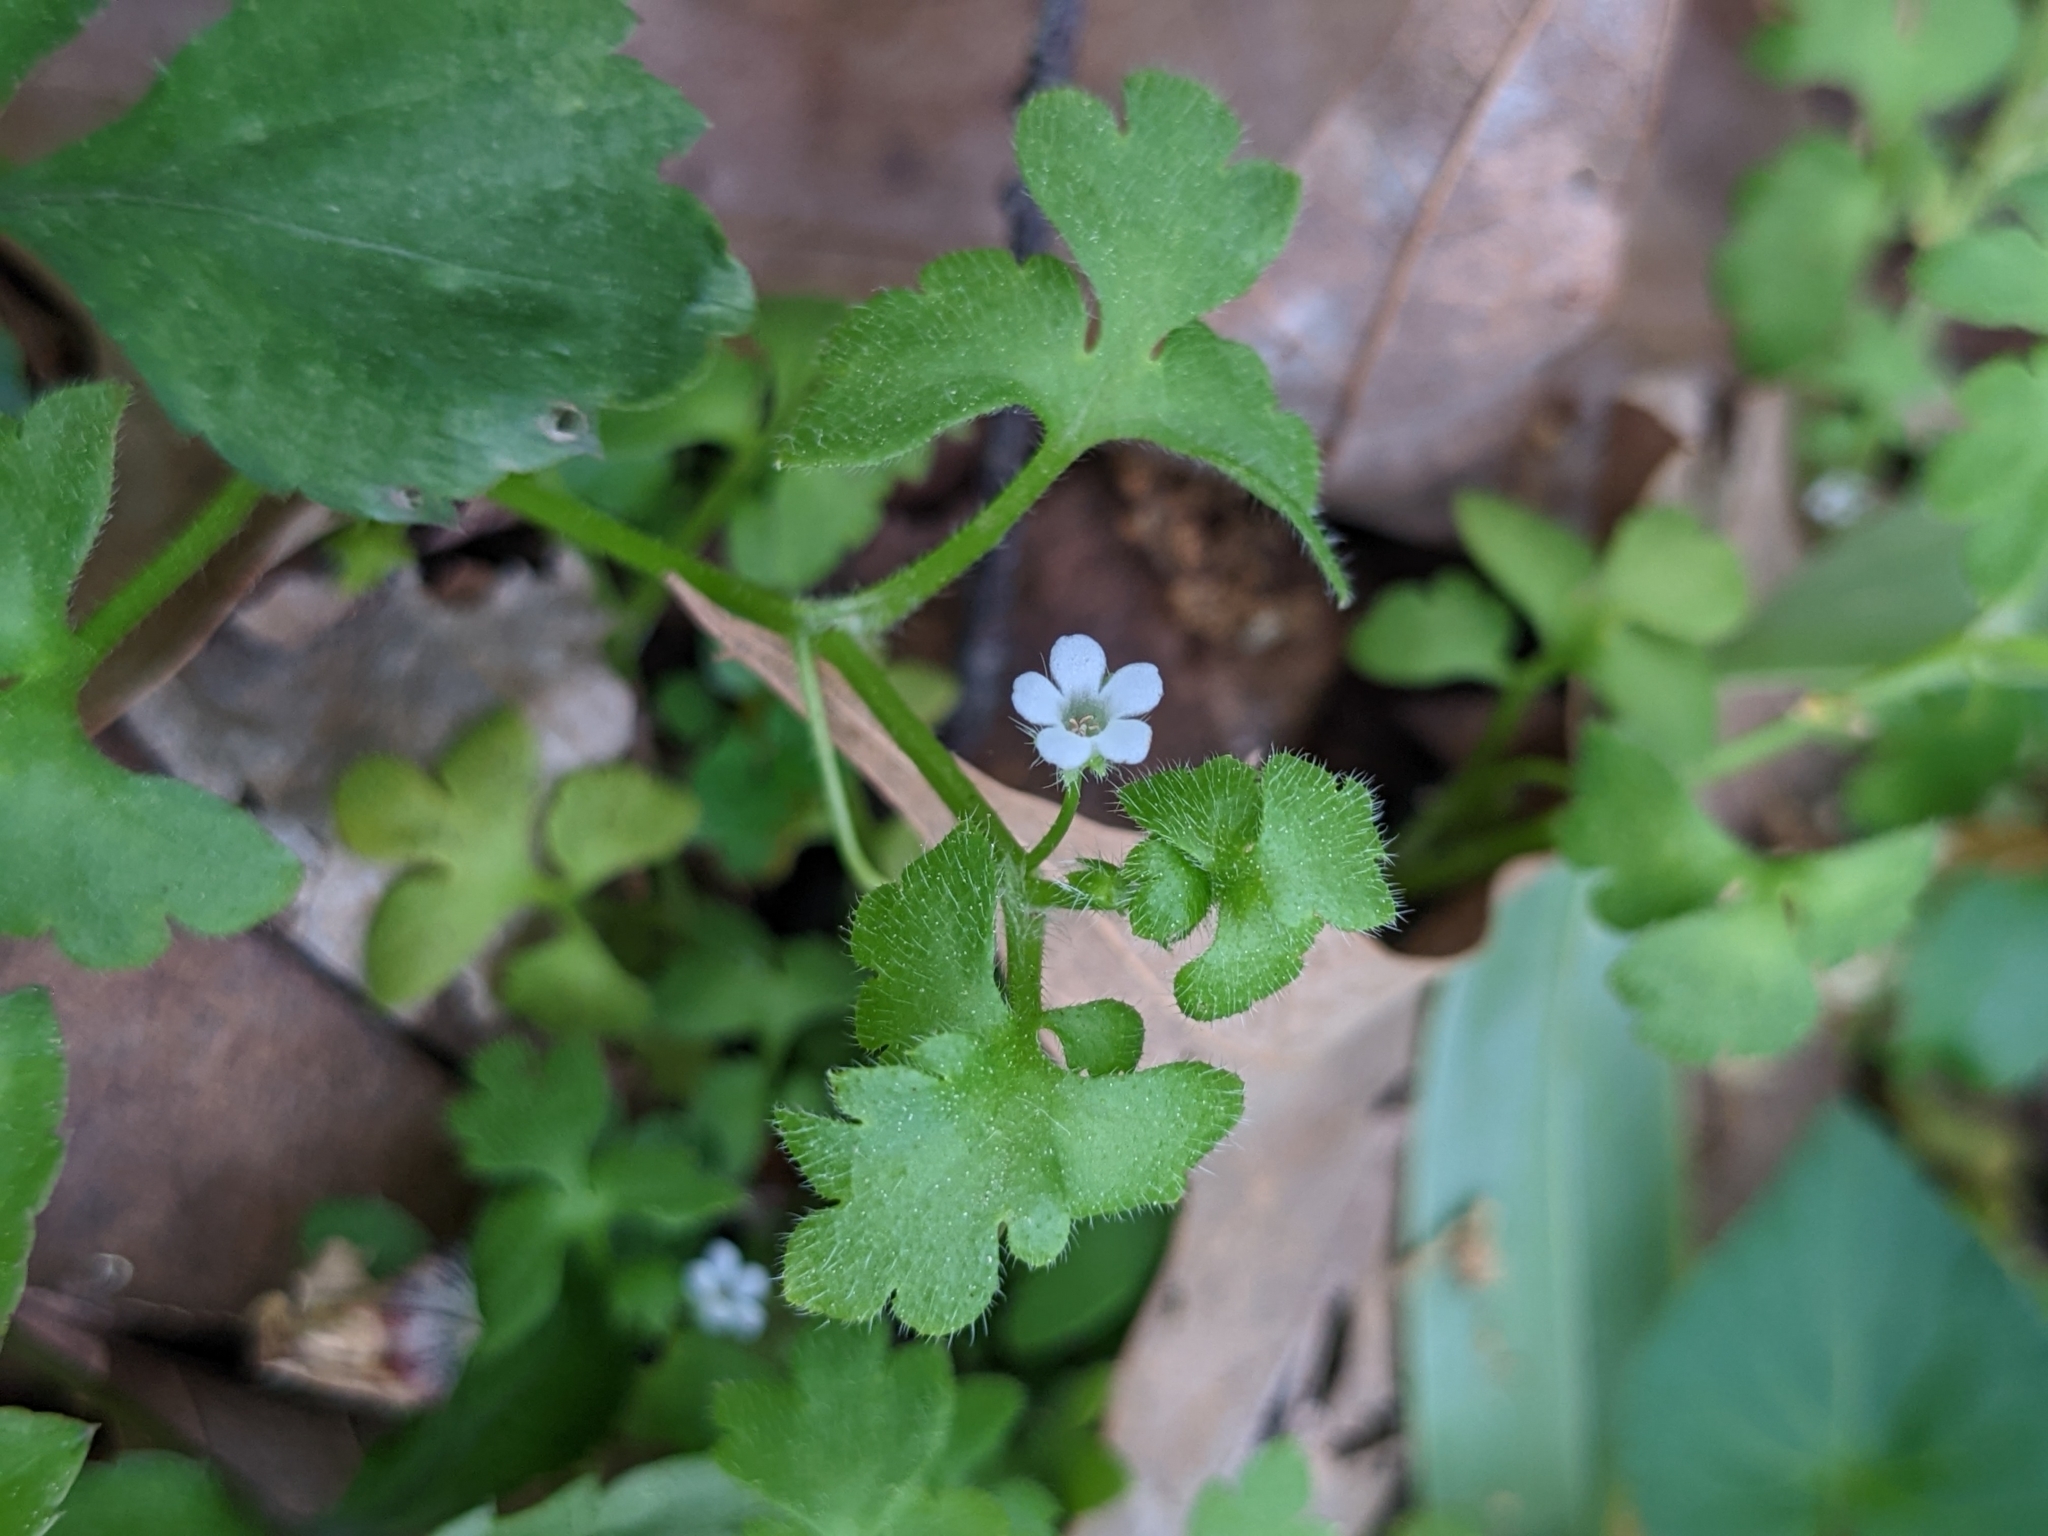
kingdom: Plantae
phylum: Tracheophyta
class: Magnoliopsida
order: Boraginales
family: Hydrophyllaceae
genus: Nemophila
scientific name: Nemophila aphylla
